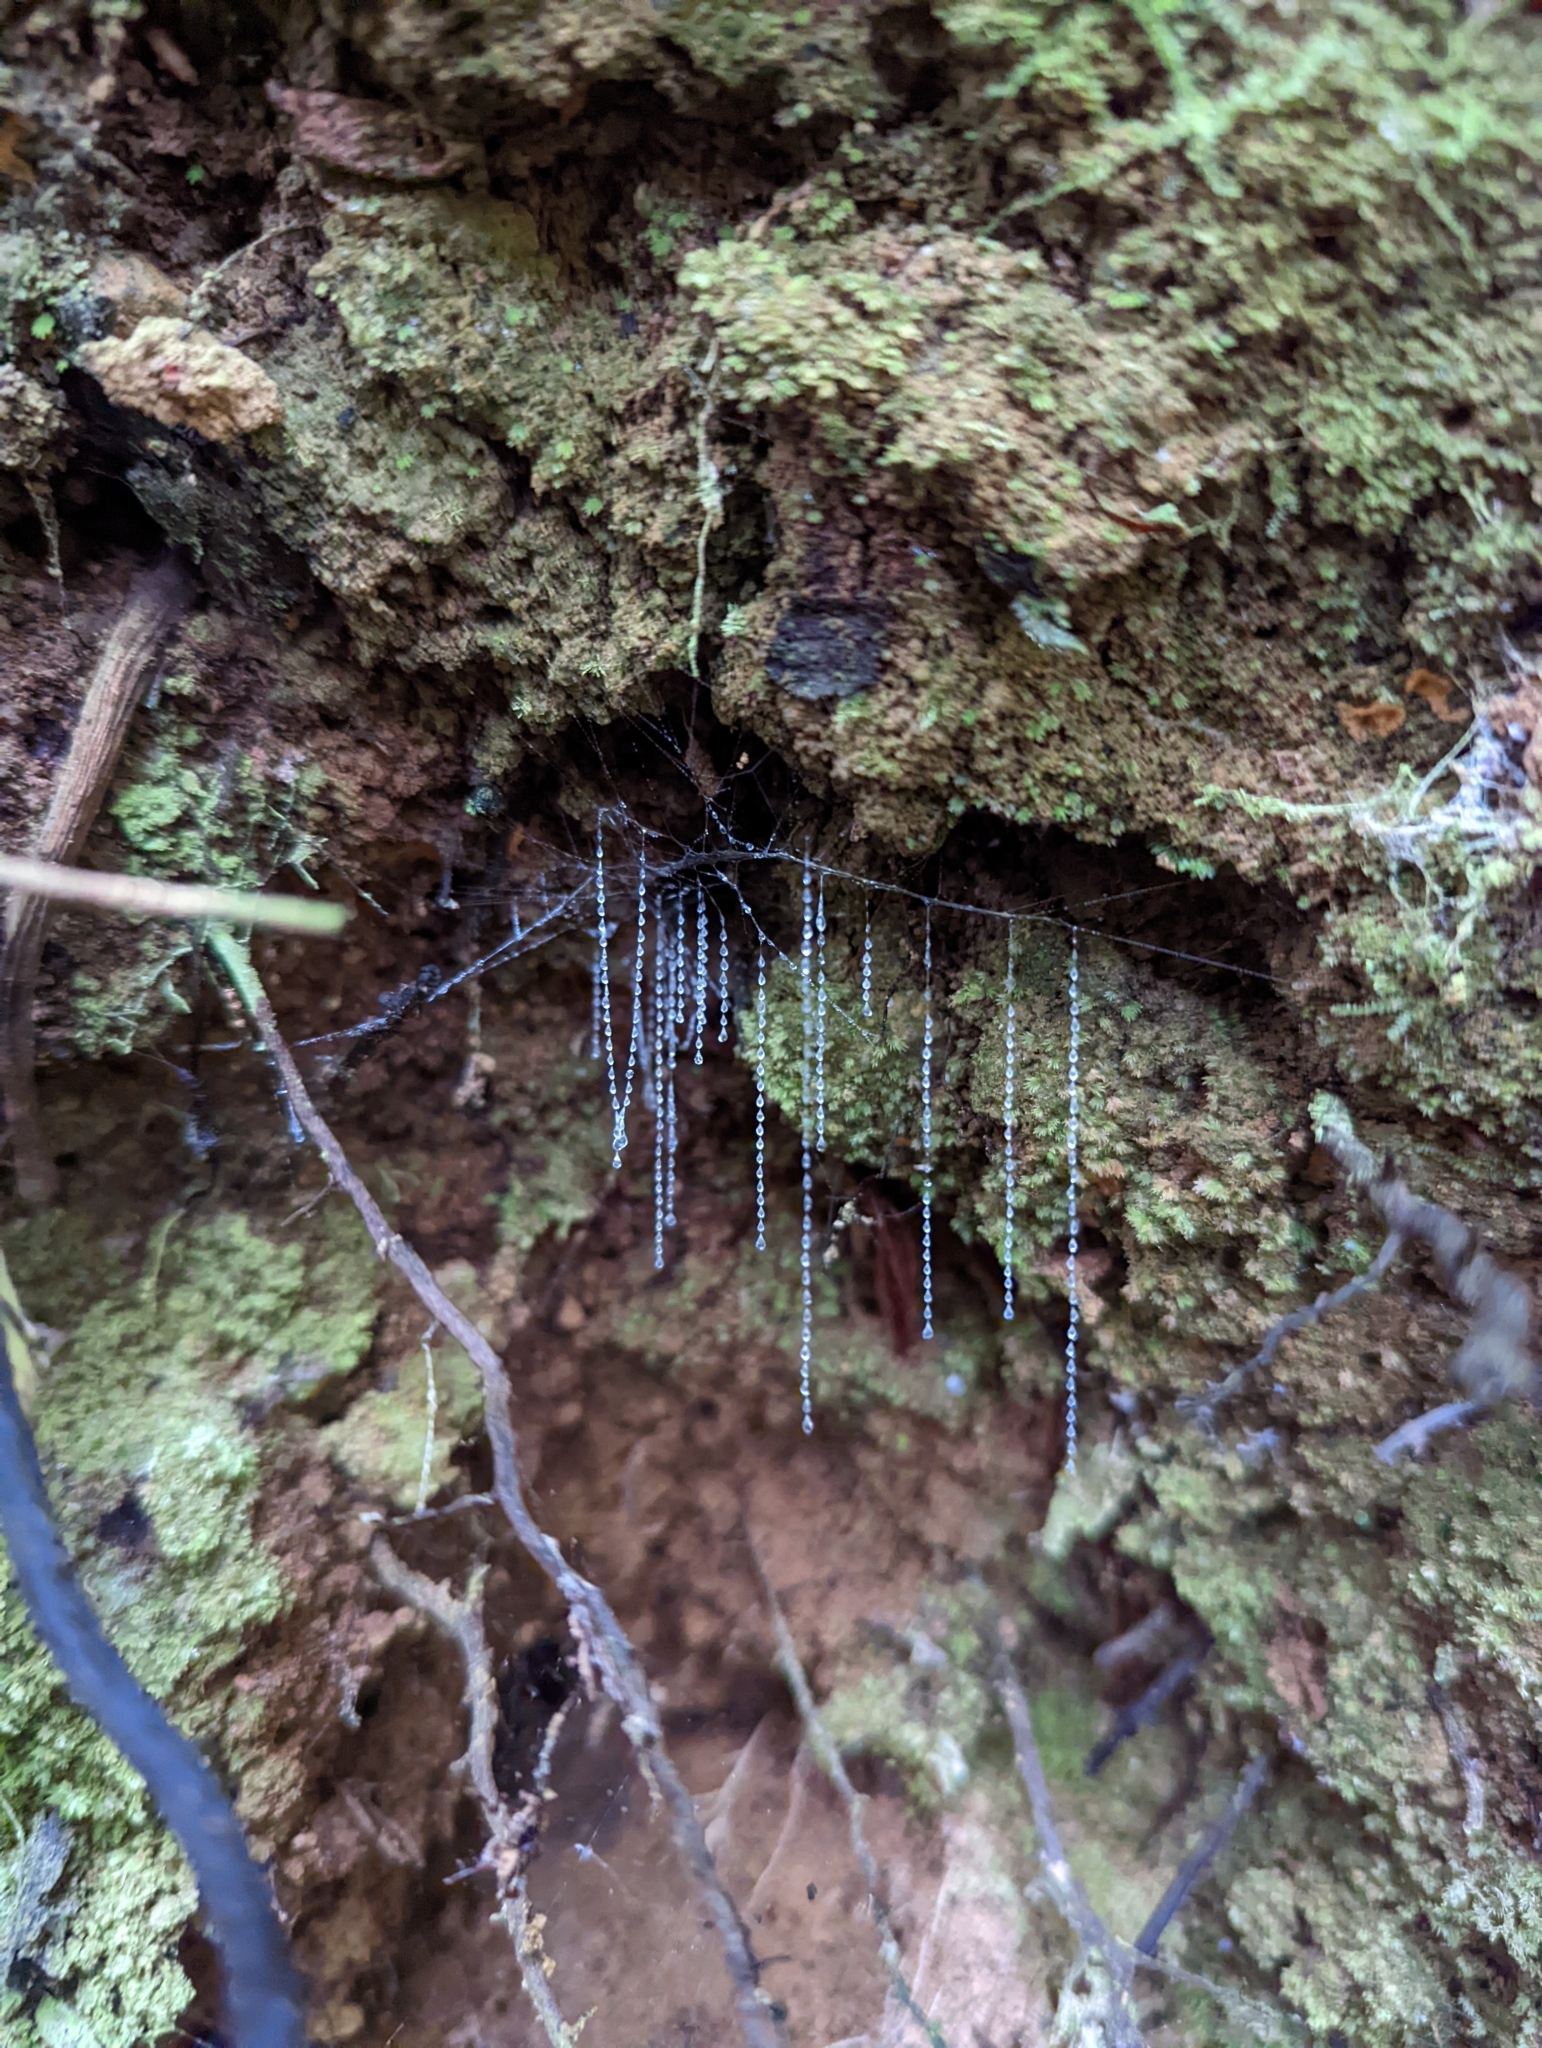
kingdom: Animalia
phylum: Arthropoda
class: Insecta
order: Diptera
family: Keroplatidae
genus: Arachnocampa
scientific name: Arachnocampa luminosa
